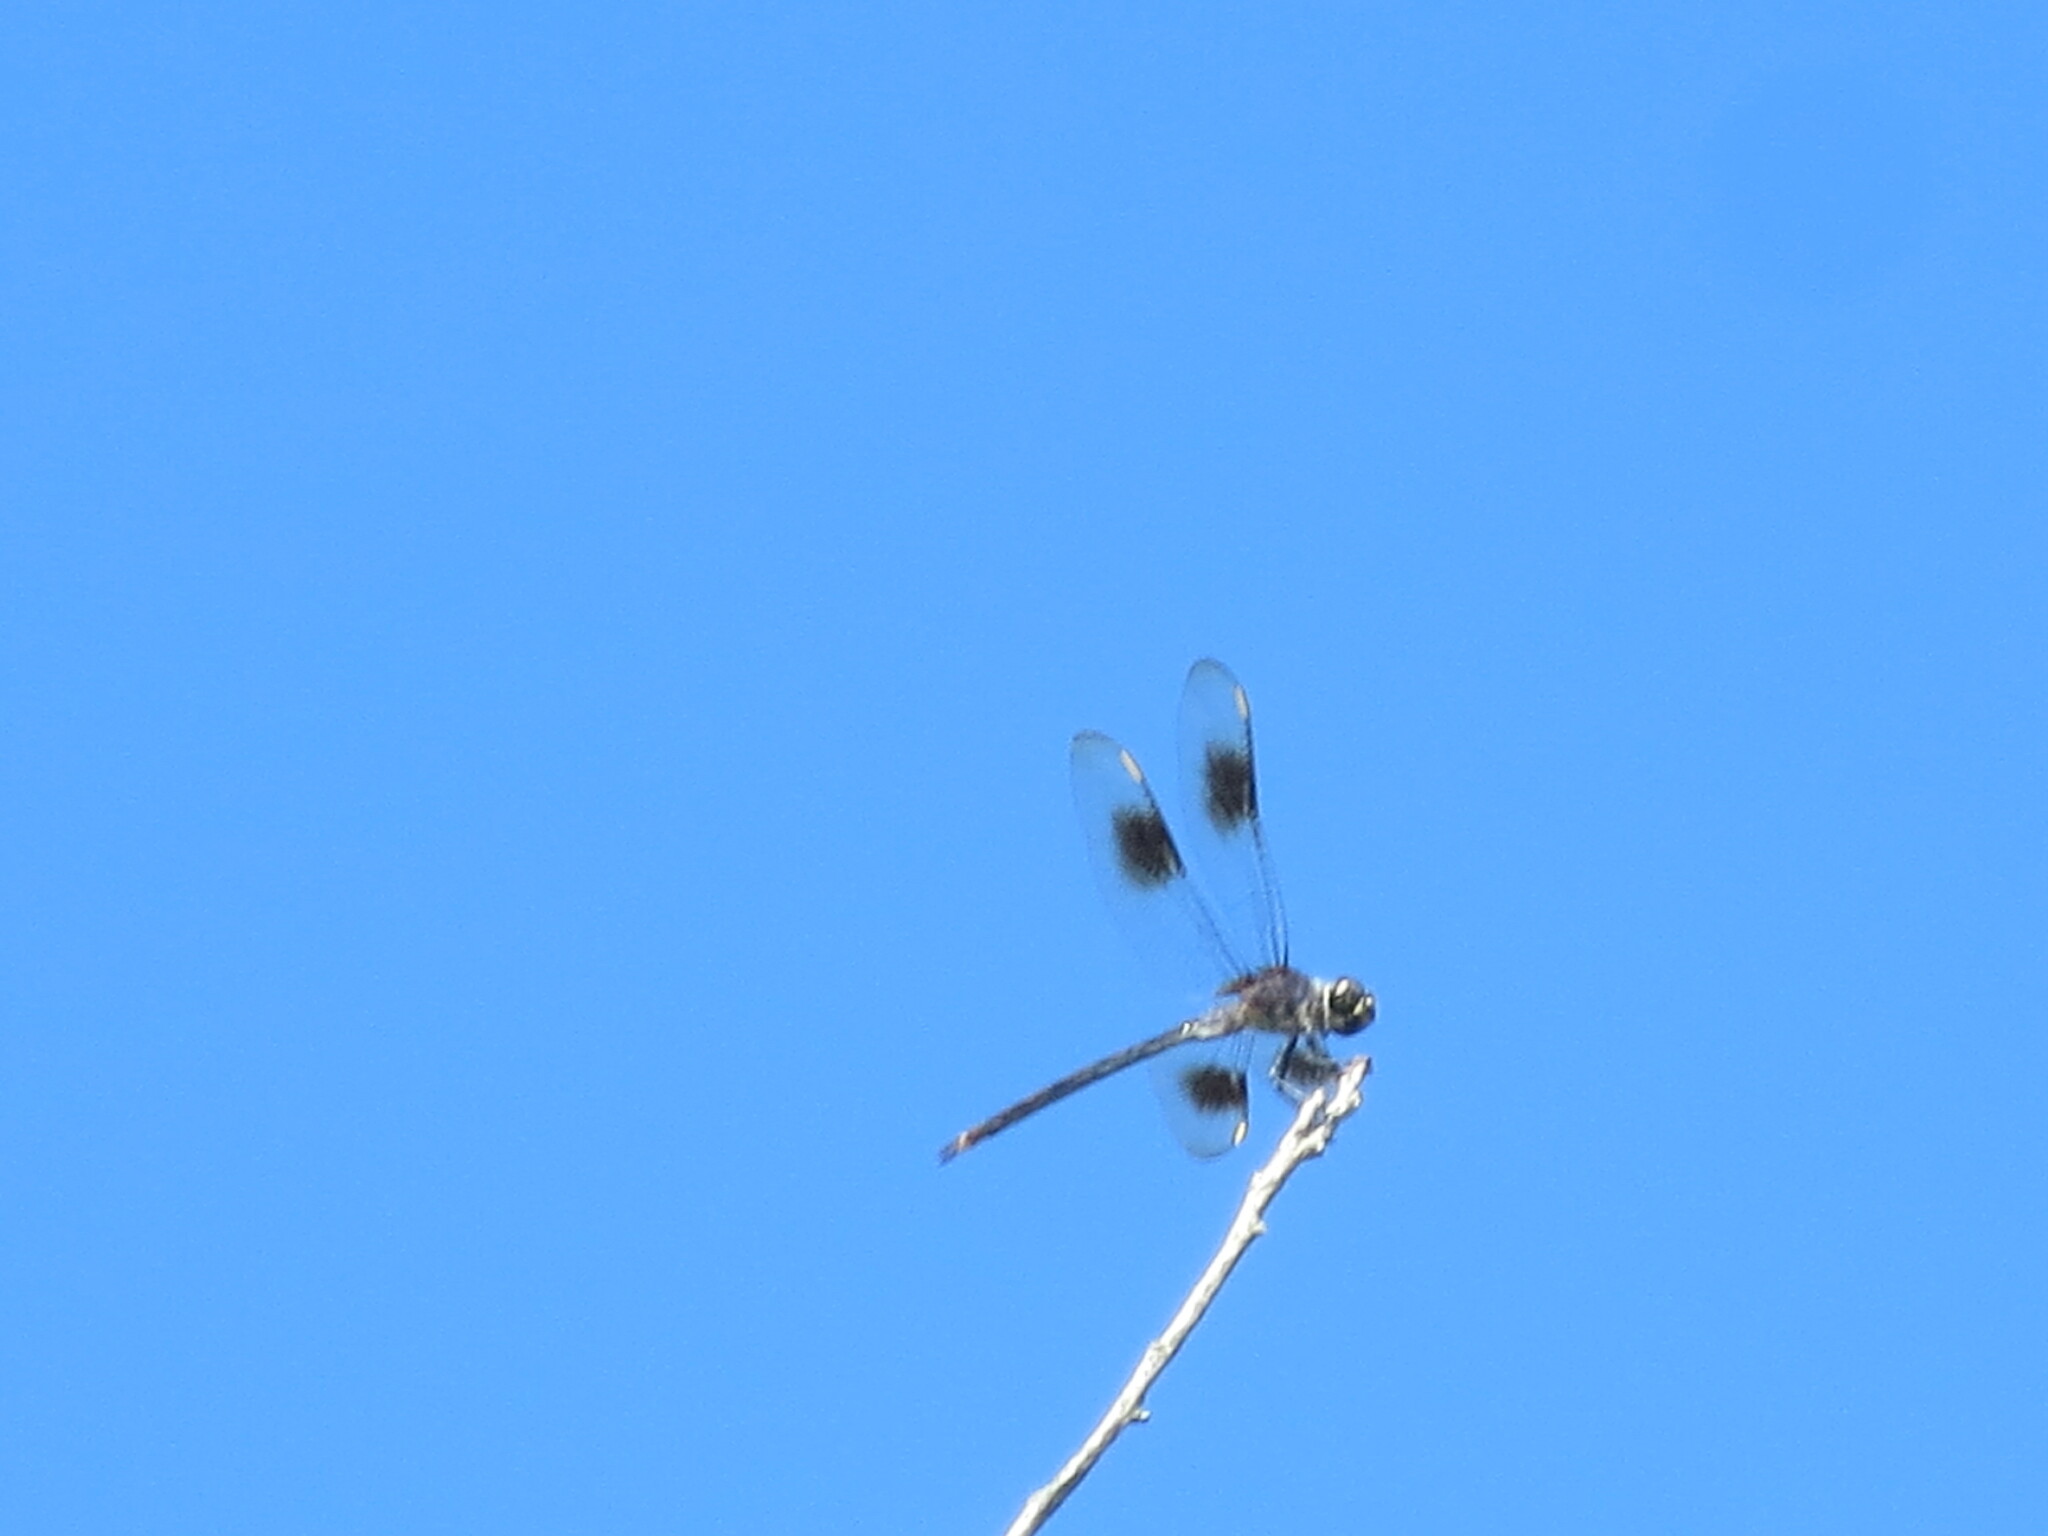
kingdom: Animalia
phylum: Arthropoda
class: Insecta
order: Odonata
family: Libellulidae
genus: Brachymesia
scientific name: Brachymesia gravida
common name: Four-spotted pennant
